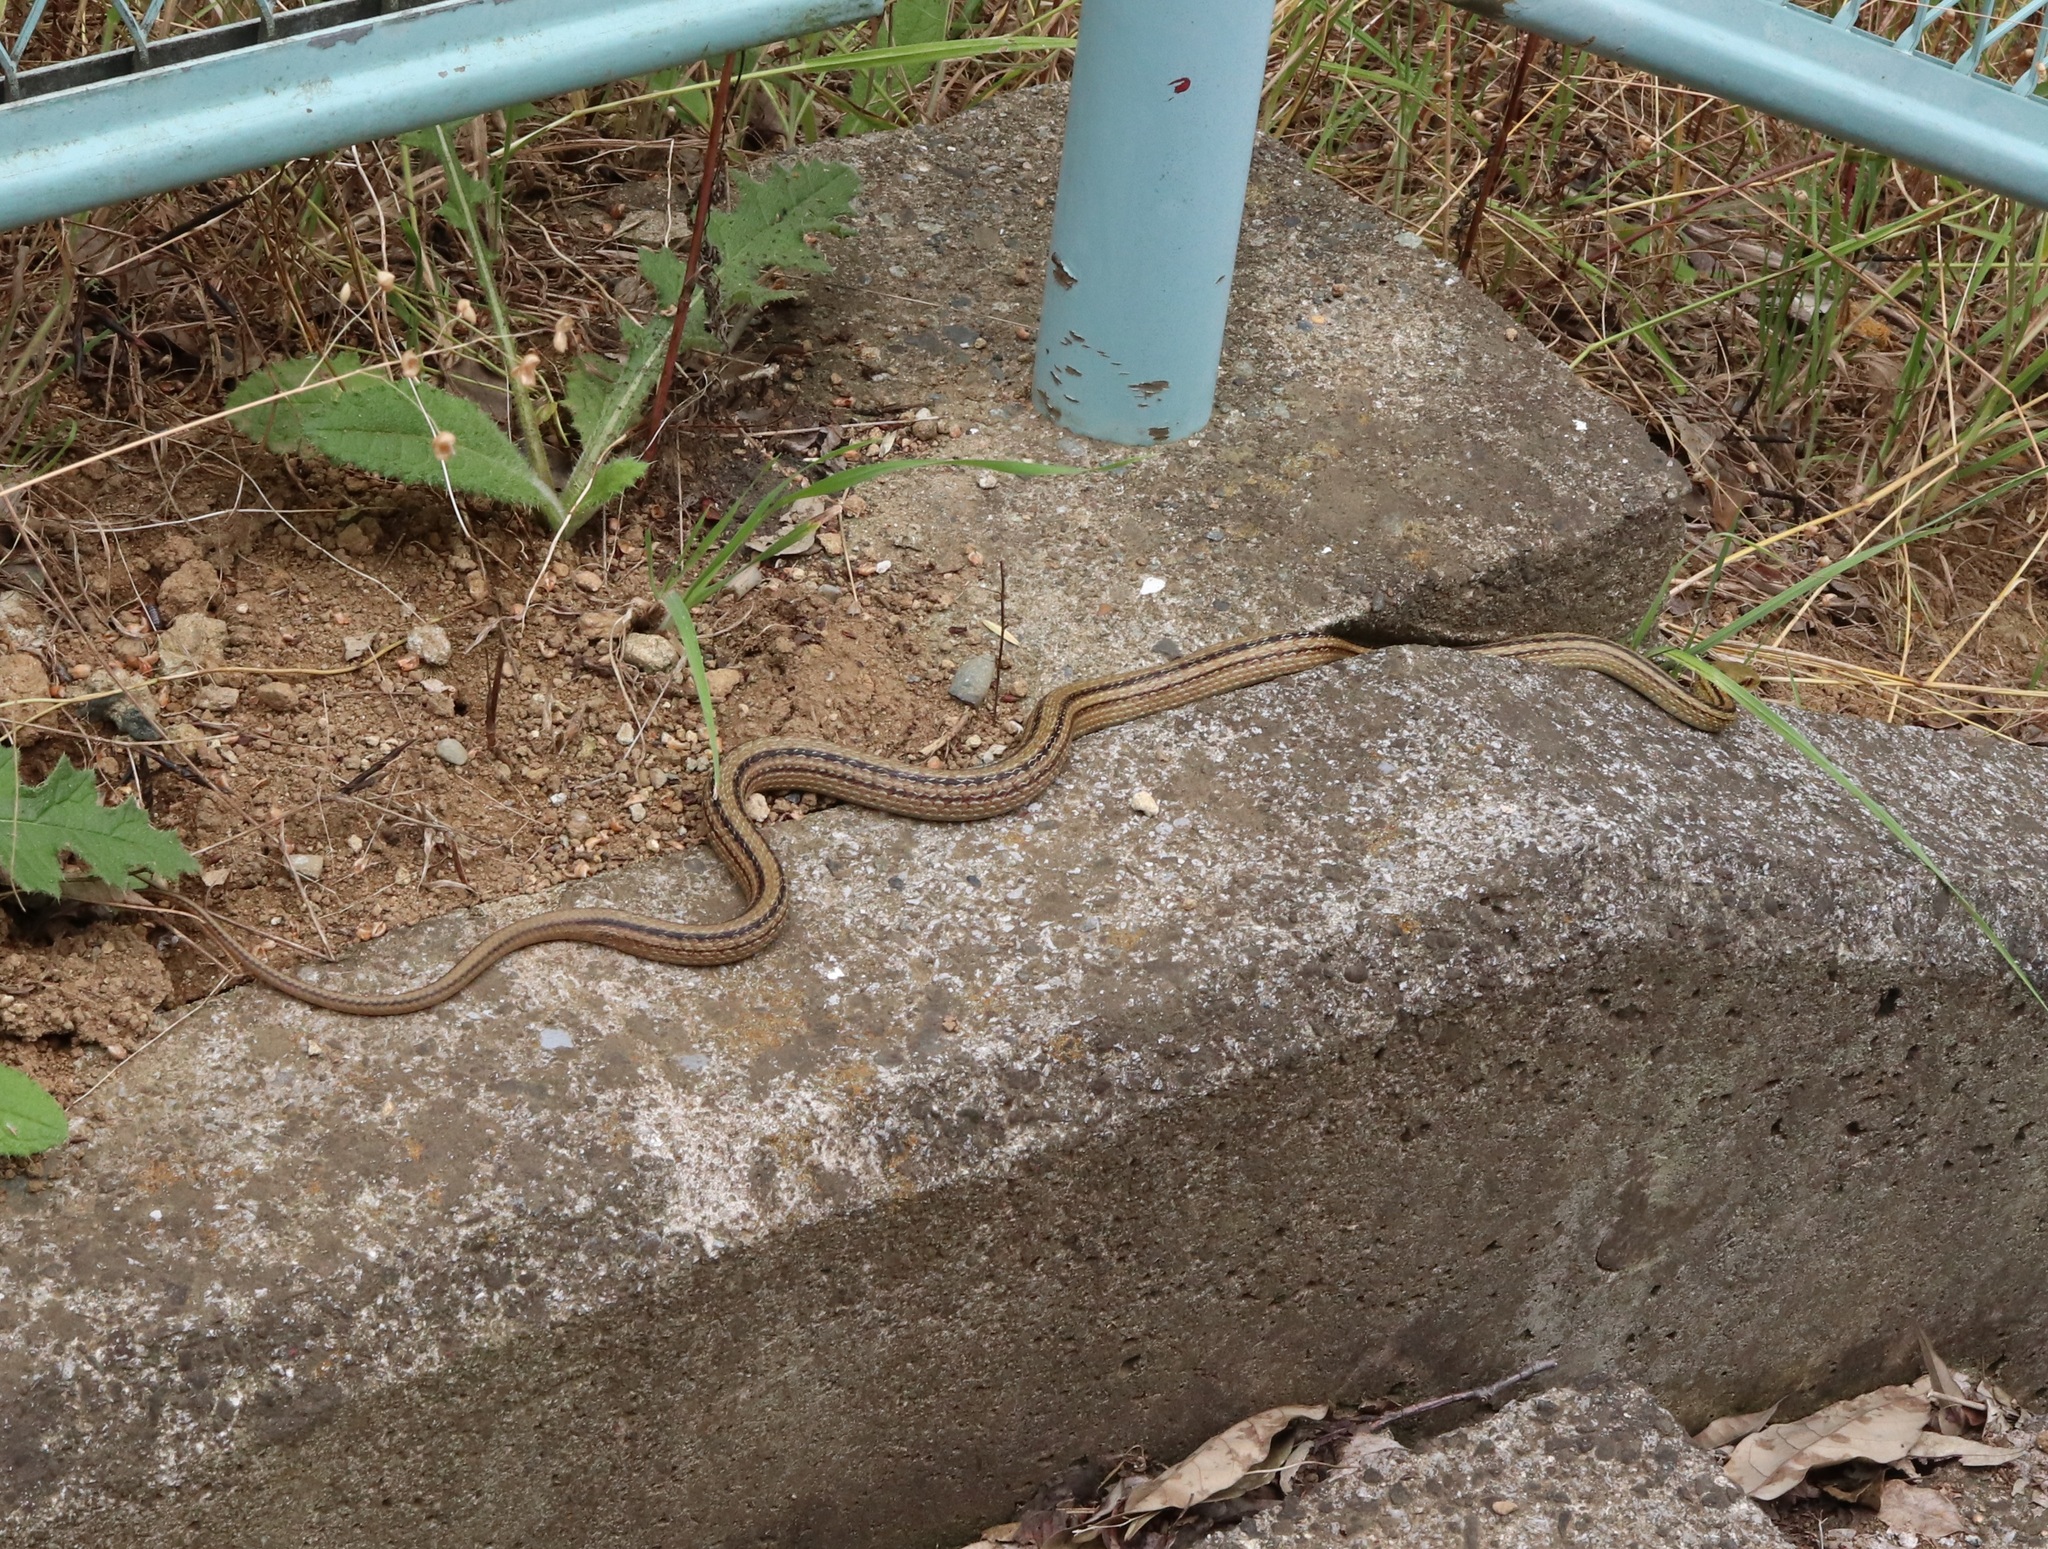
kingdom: Animalia
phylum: Chordata
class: Squamata
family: Colubridae
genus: Elaphe
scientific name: Elaphe quadrivirgata
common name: Japanese four-lined ratsnake
